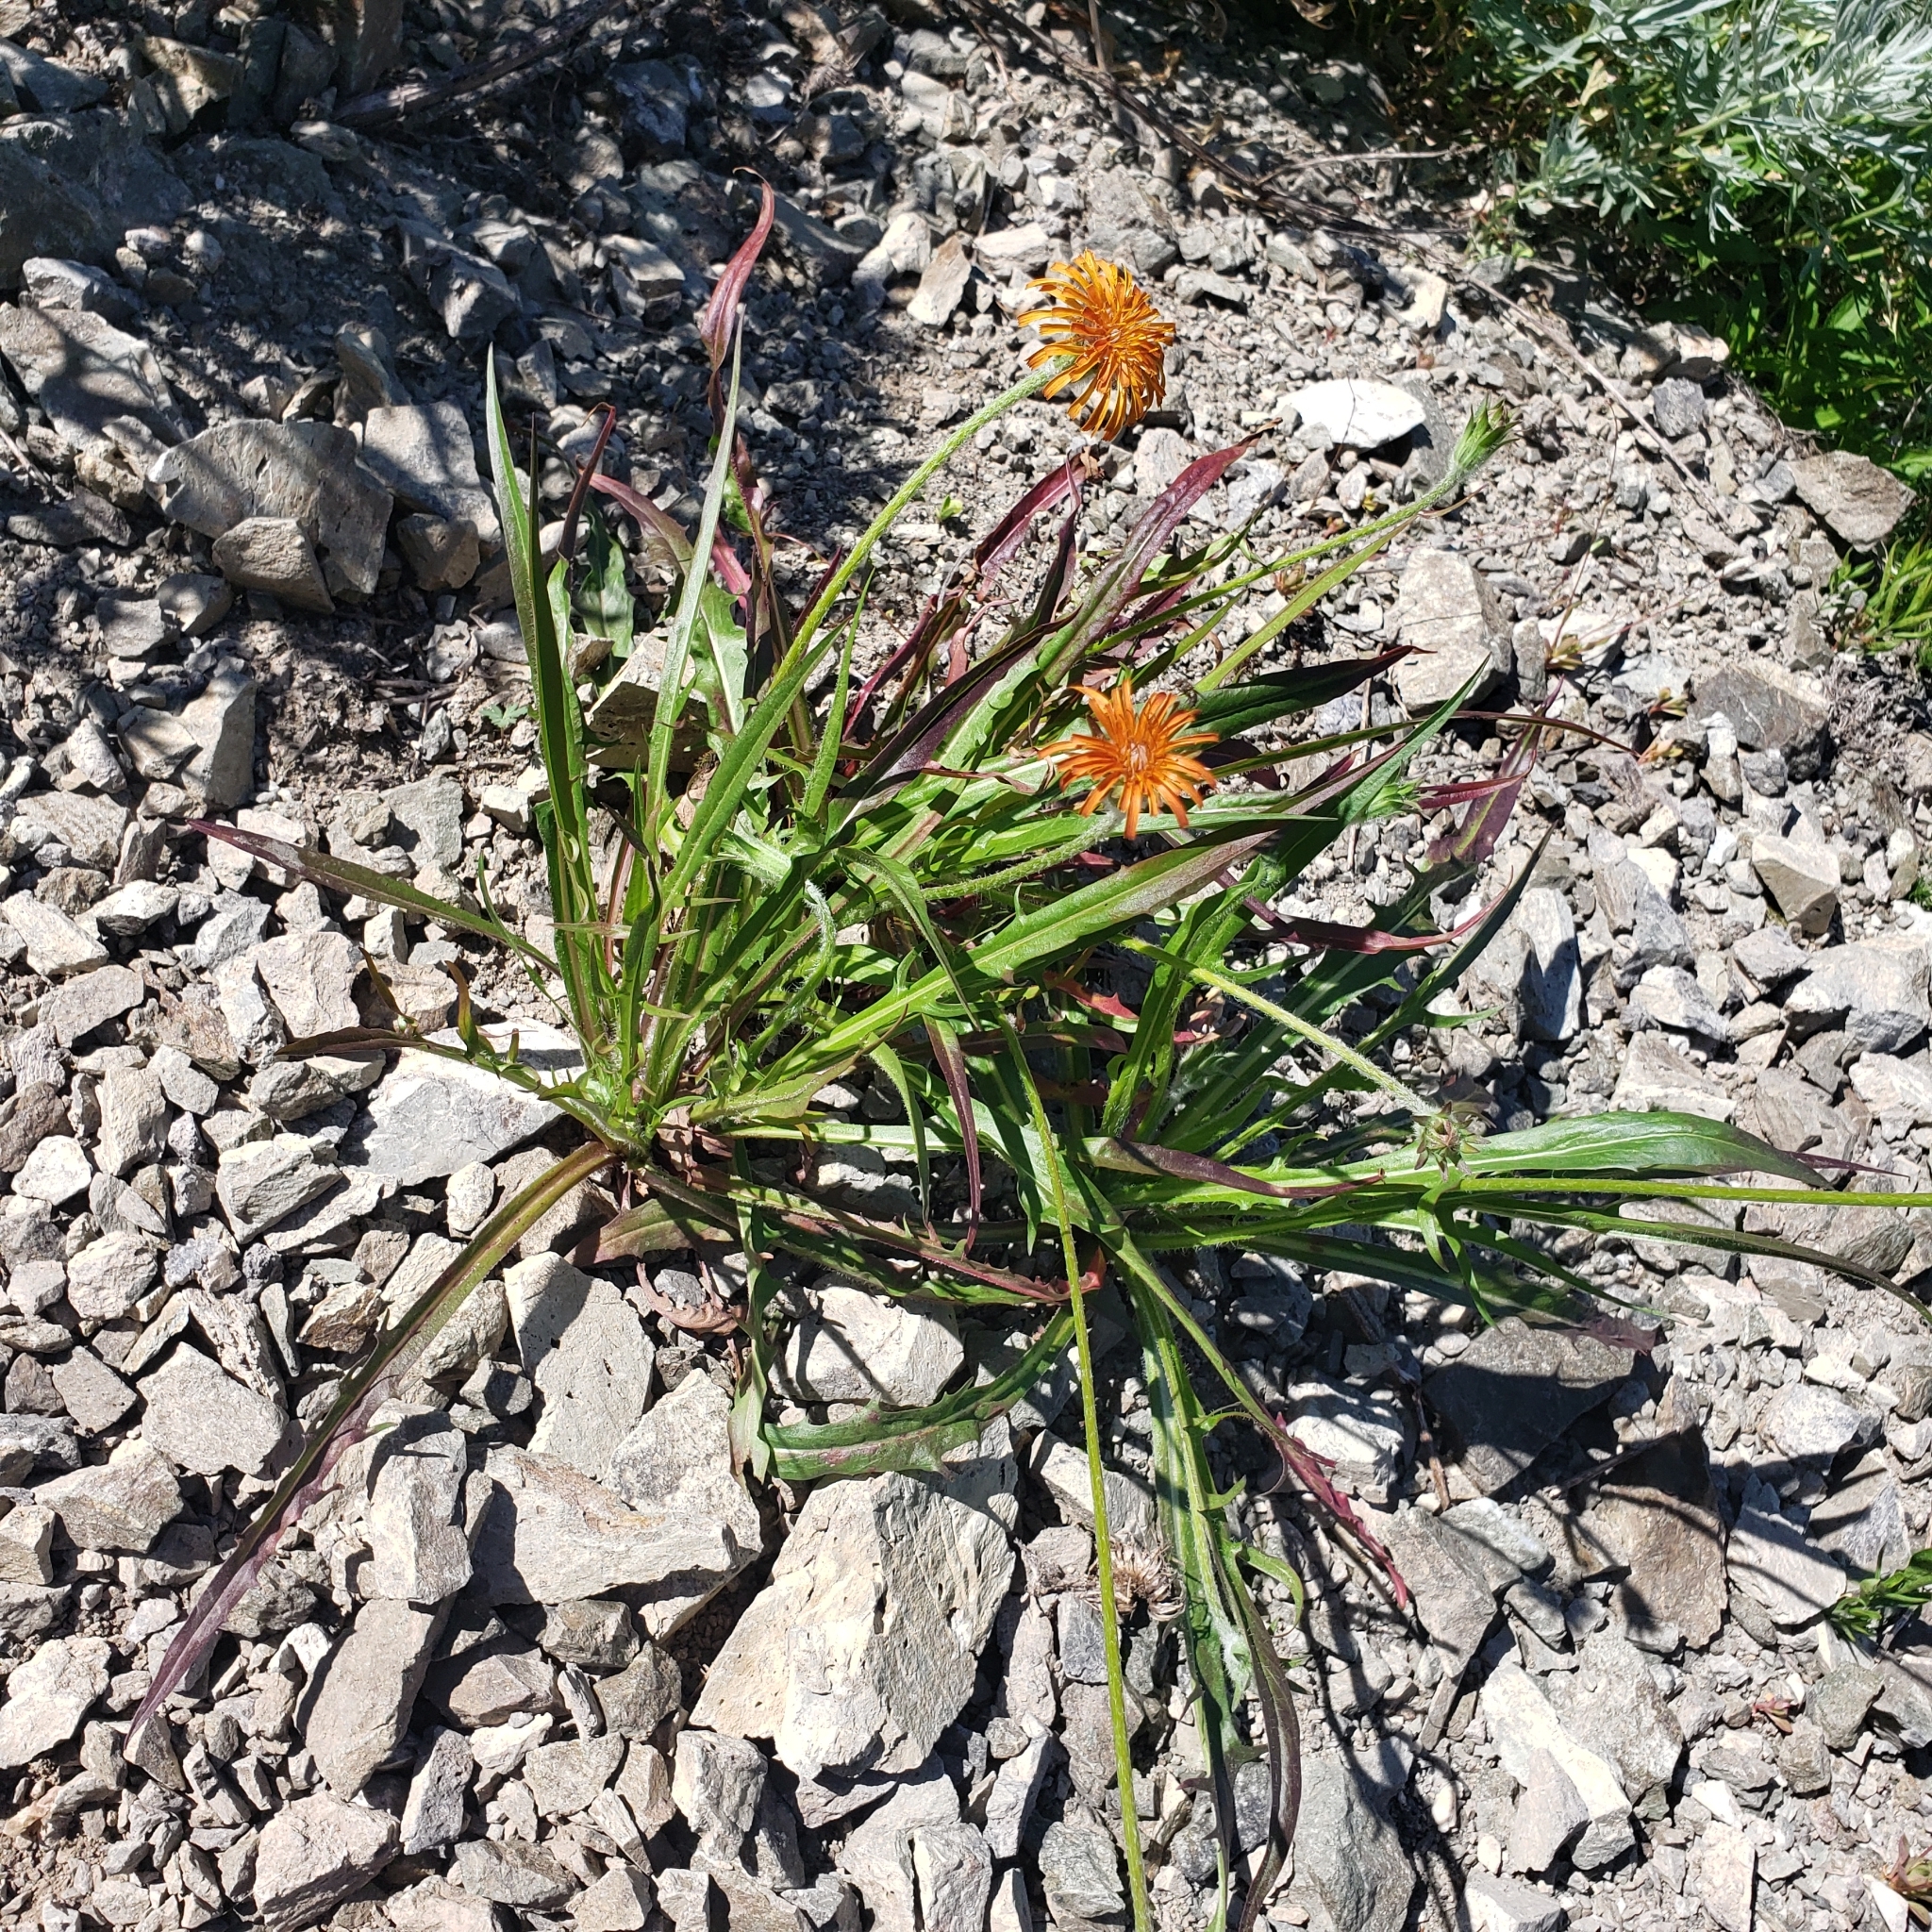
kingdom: Plantae
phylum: Tracheophyta
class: Magnoliopsida
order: Asterales
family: Asteraceae
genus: Agoseris
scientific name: Agoseris aurantiaca
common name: Mountain agoseris
